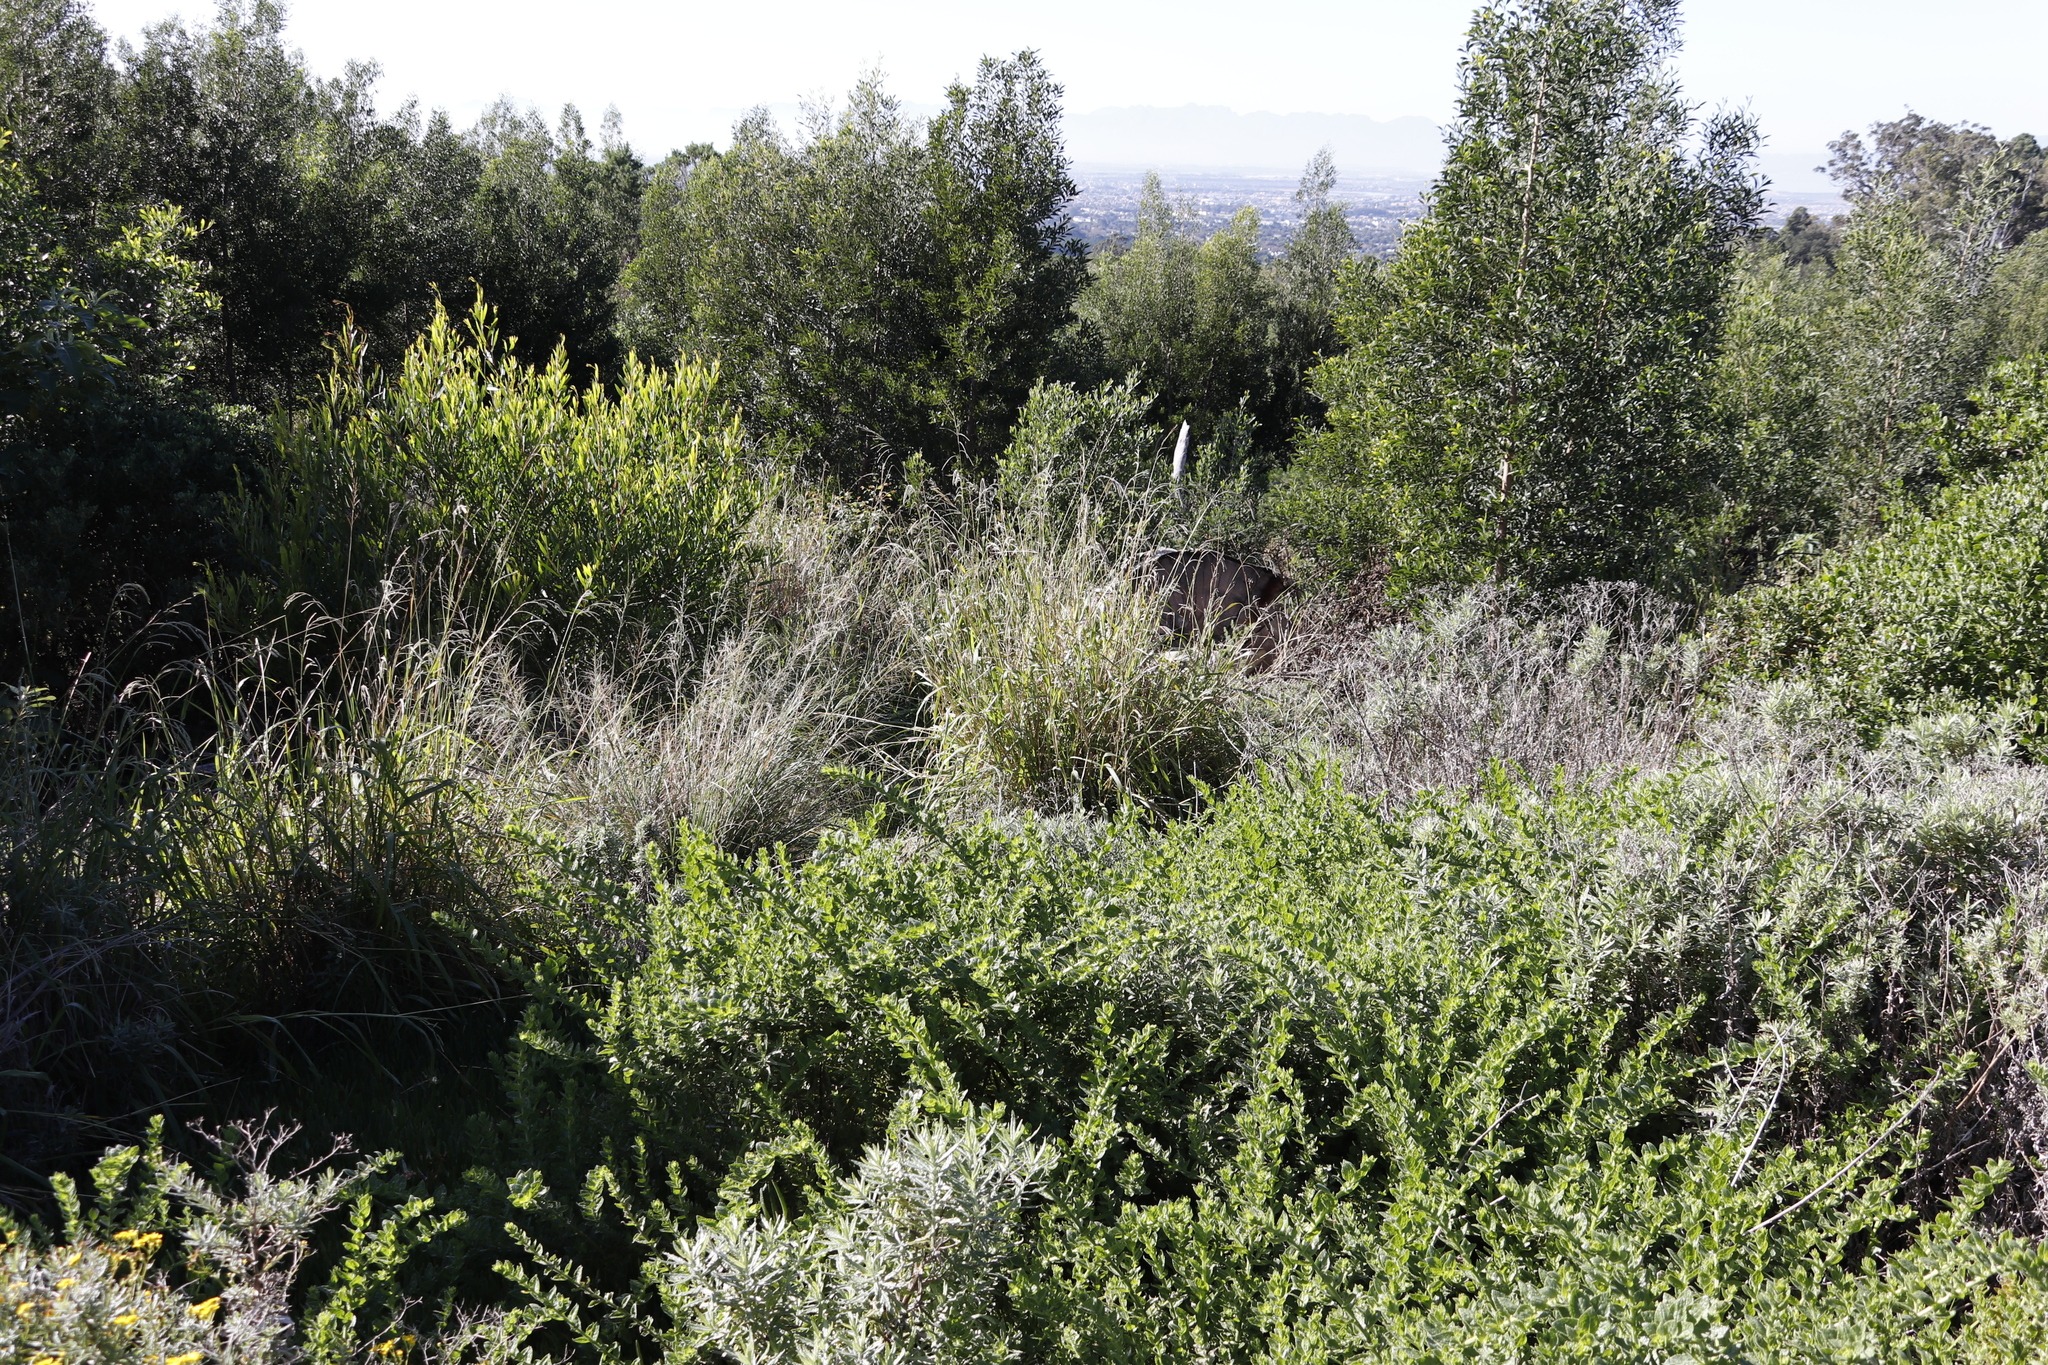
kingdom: Plantae
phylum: Tracheophyta
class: Liliopsida
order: Poales
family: Poaceae
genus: Paspalum
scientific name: Paspalum urvillei
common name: Vasey's grass
